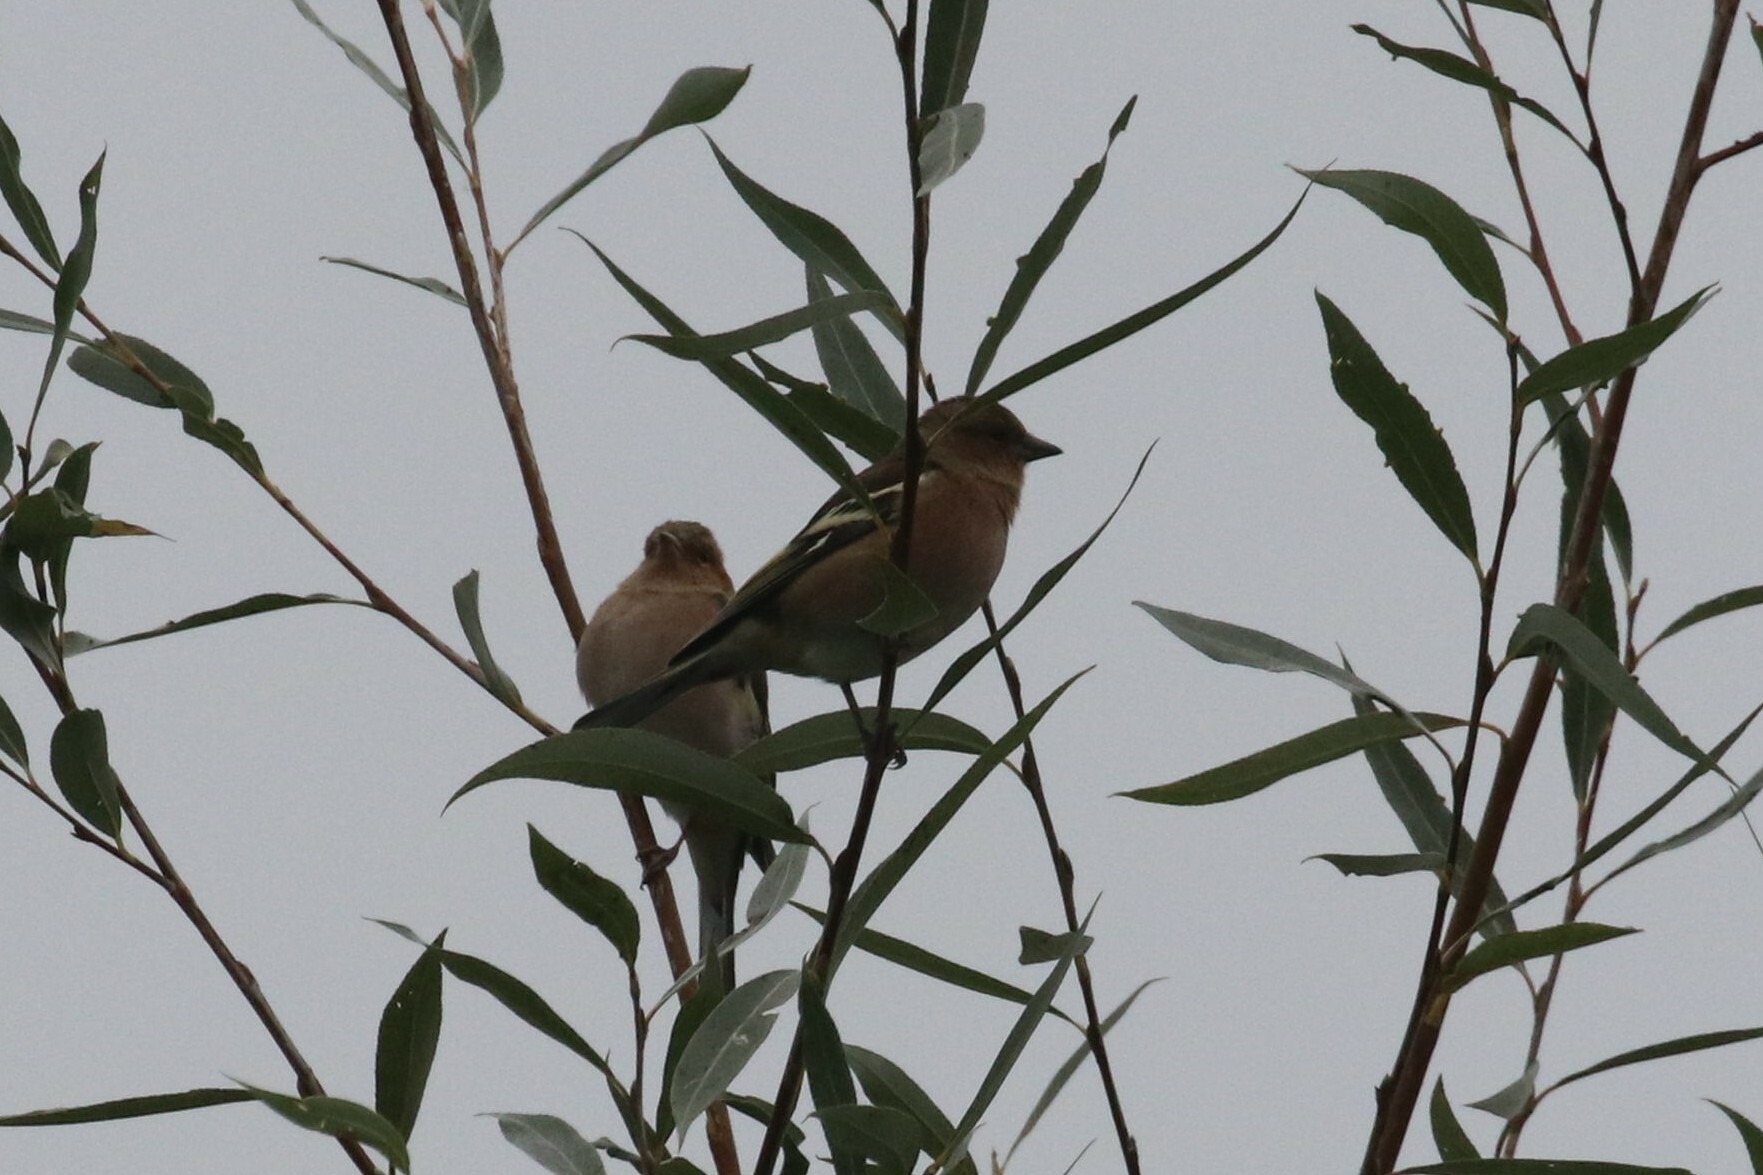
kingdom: Animalia
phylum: Chordata
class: Aves
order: Passeriformes
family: Fringillidae
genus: Fringilla
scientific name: Fringilla coelebs
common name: Common chaffinch
